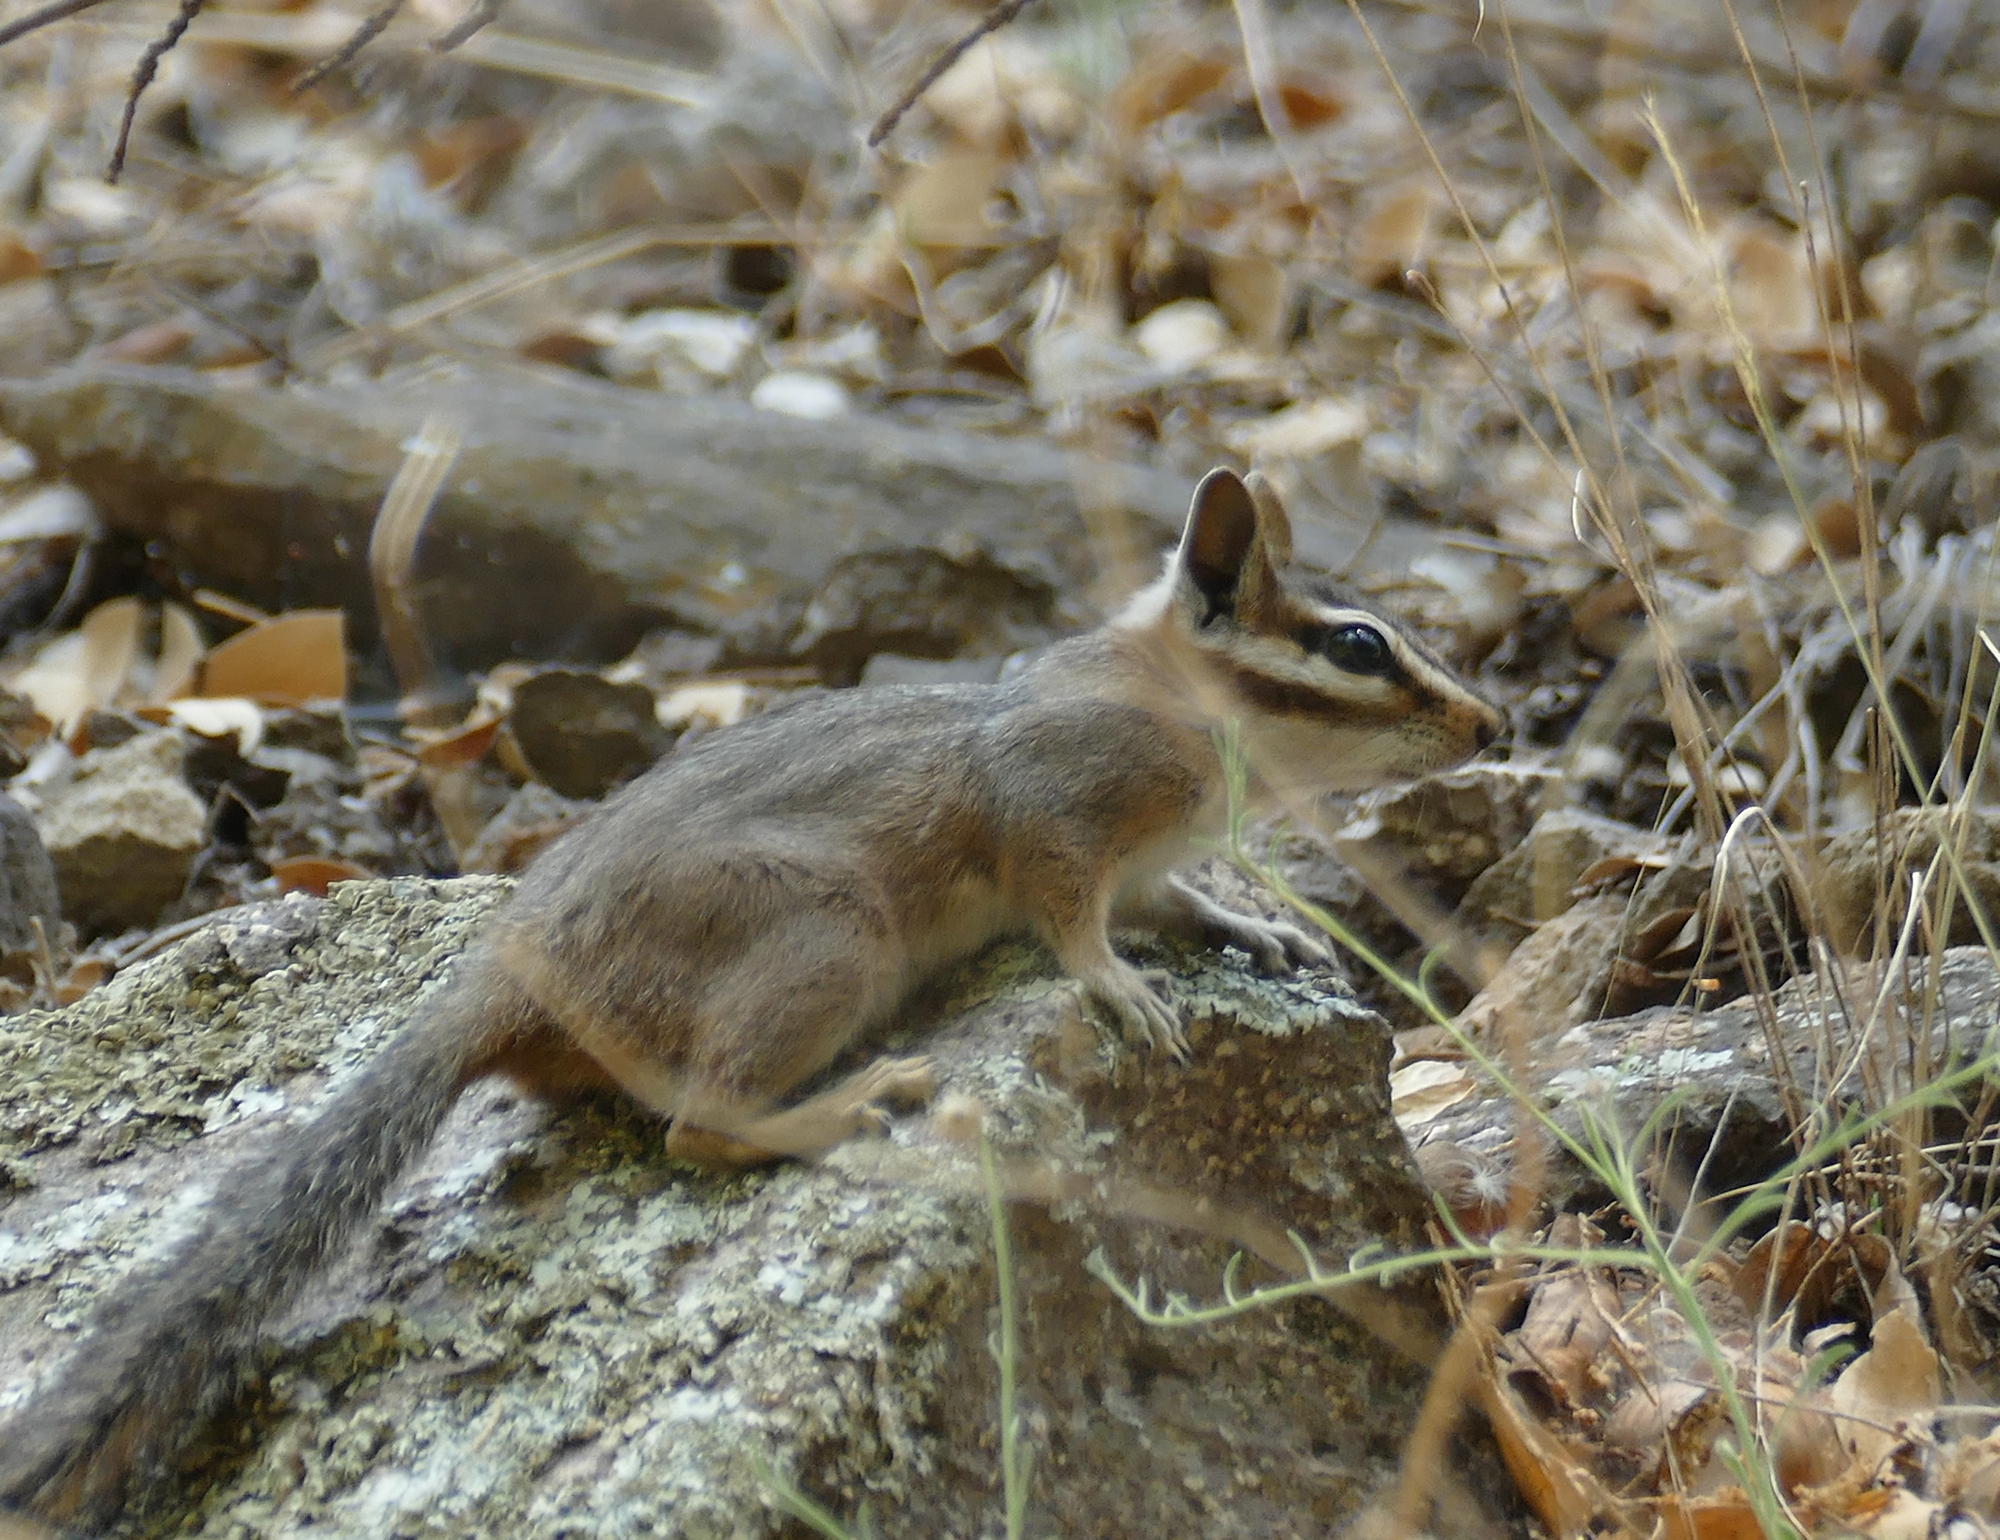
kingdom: Animalia
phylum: Chordata
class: Mammalia
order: Rodentia
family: Sciuridae
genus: Tamias
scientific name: Tamias dorsalis
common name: Cliff chipmunk
